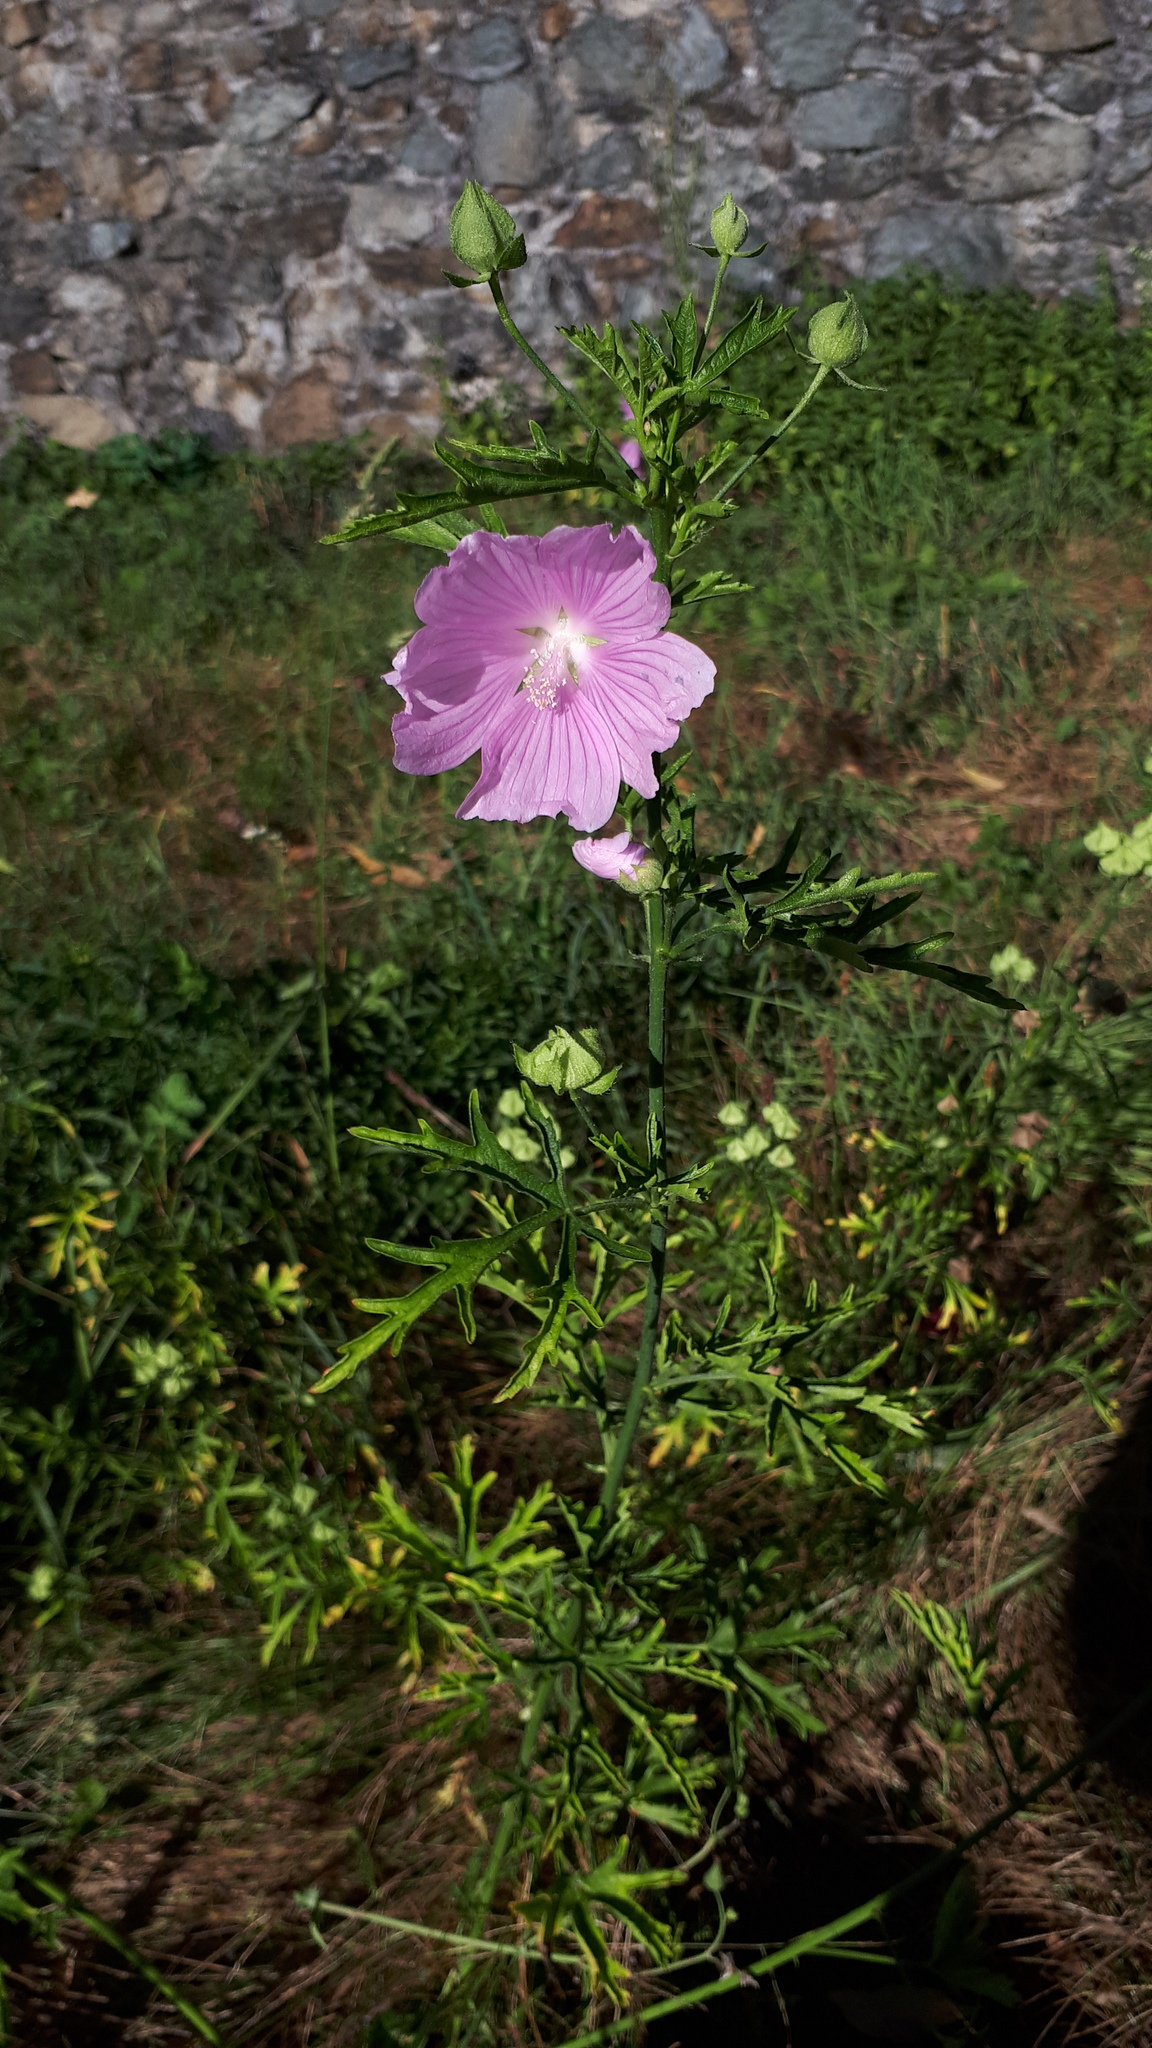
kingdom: Plantae
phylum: Tracheophyta
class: Magnoliopsida
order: Malvales
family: Malvaceae
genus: Malva
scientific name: Malva alcea
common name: Greater musk-mallow
